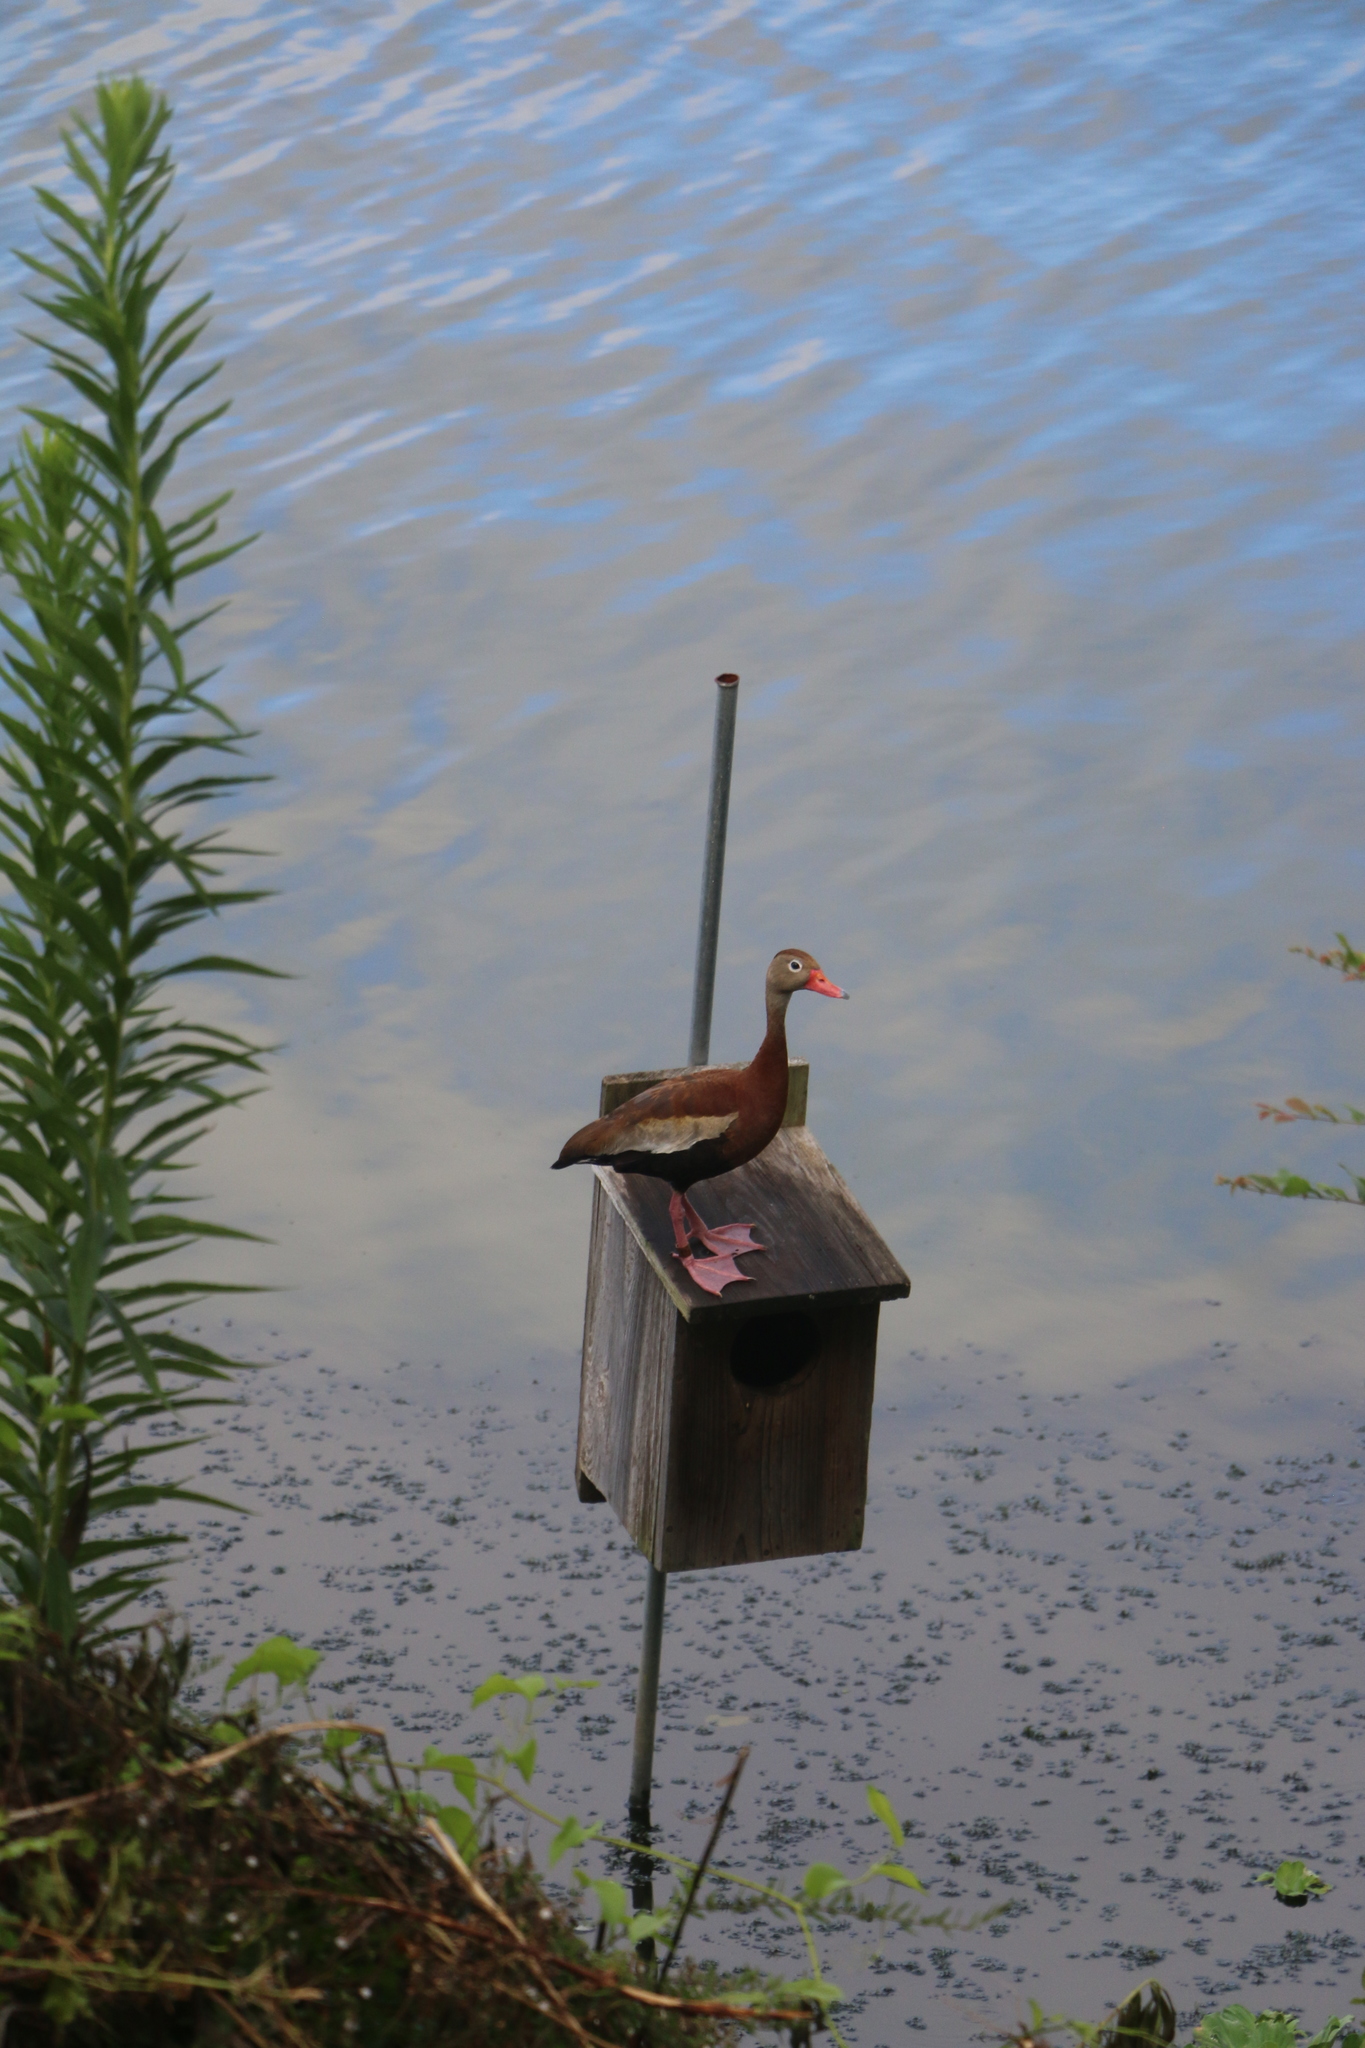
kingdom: Animalia
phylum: Chordata
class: Aves
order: Anseriformes
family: Anatidae
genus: Dendrocygna
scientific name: Dendrocygna autumnalis
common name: Black-bellied whistling duck
